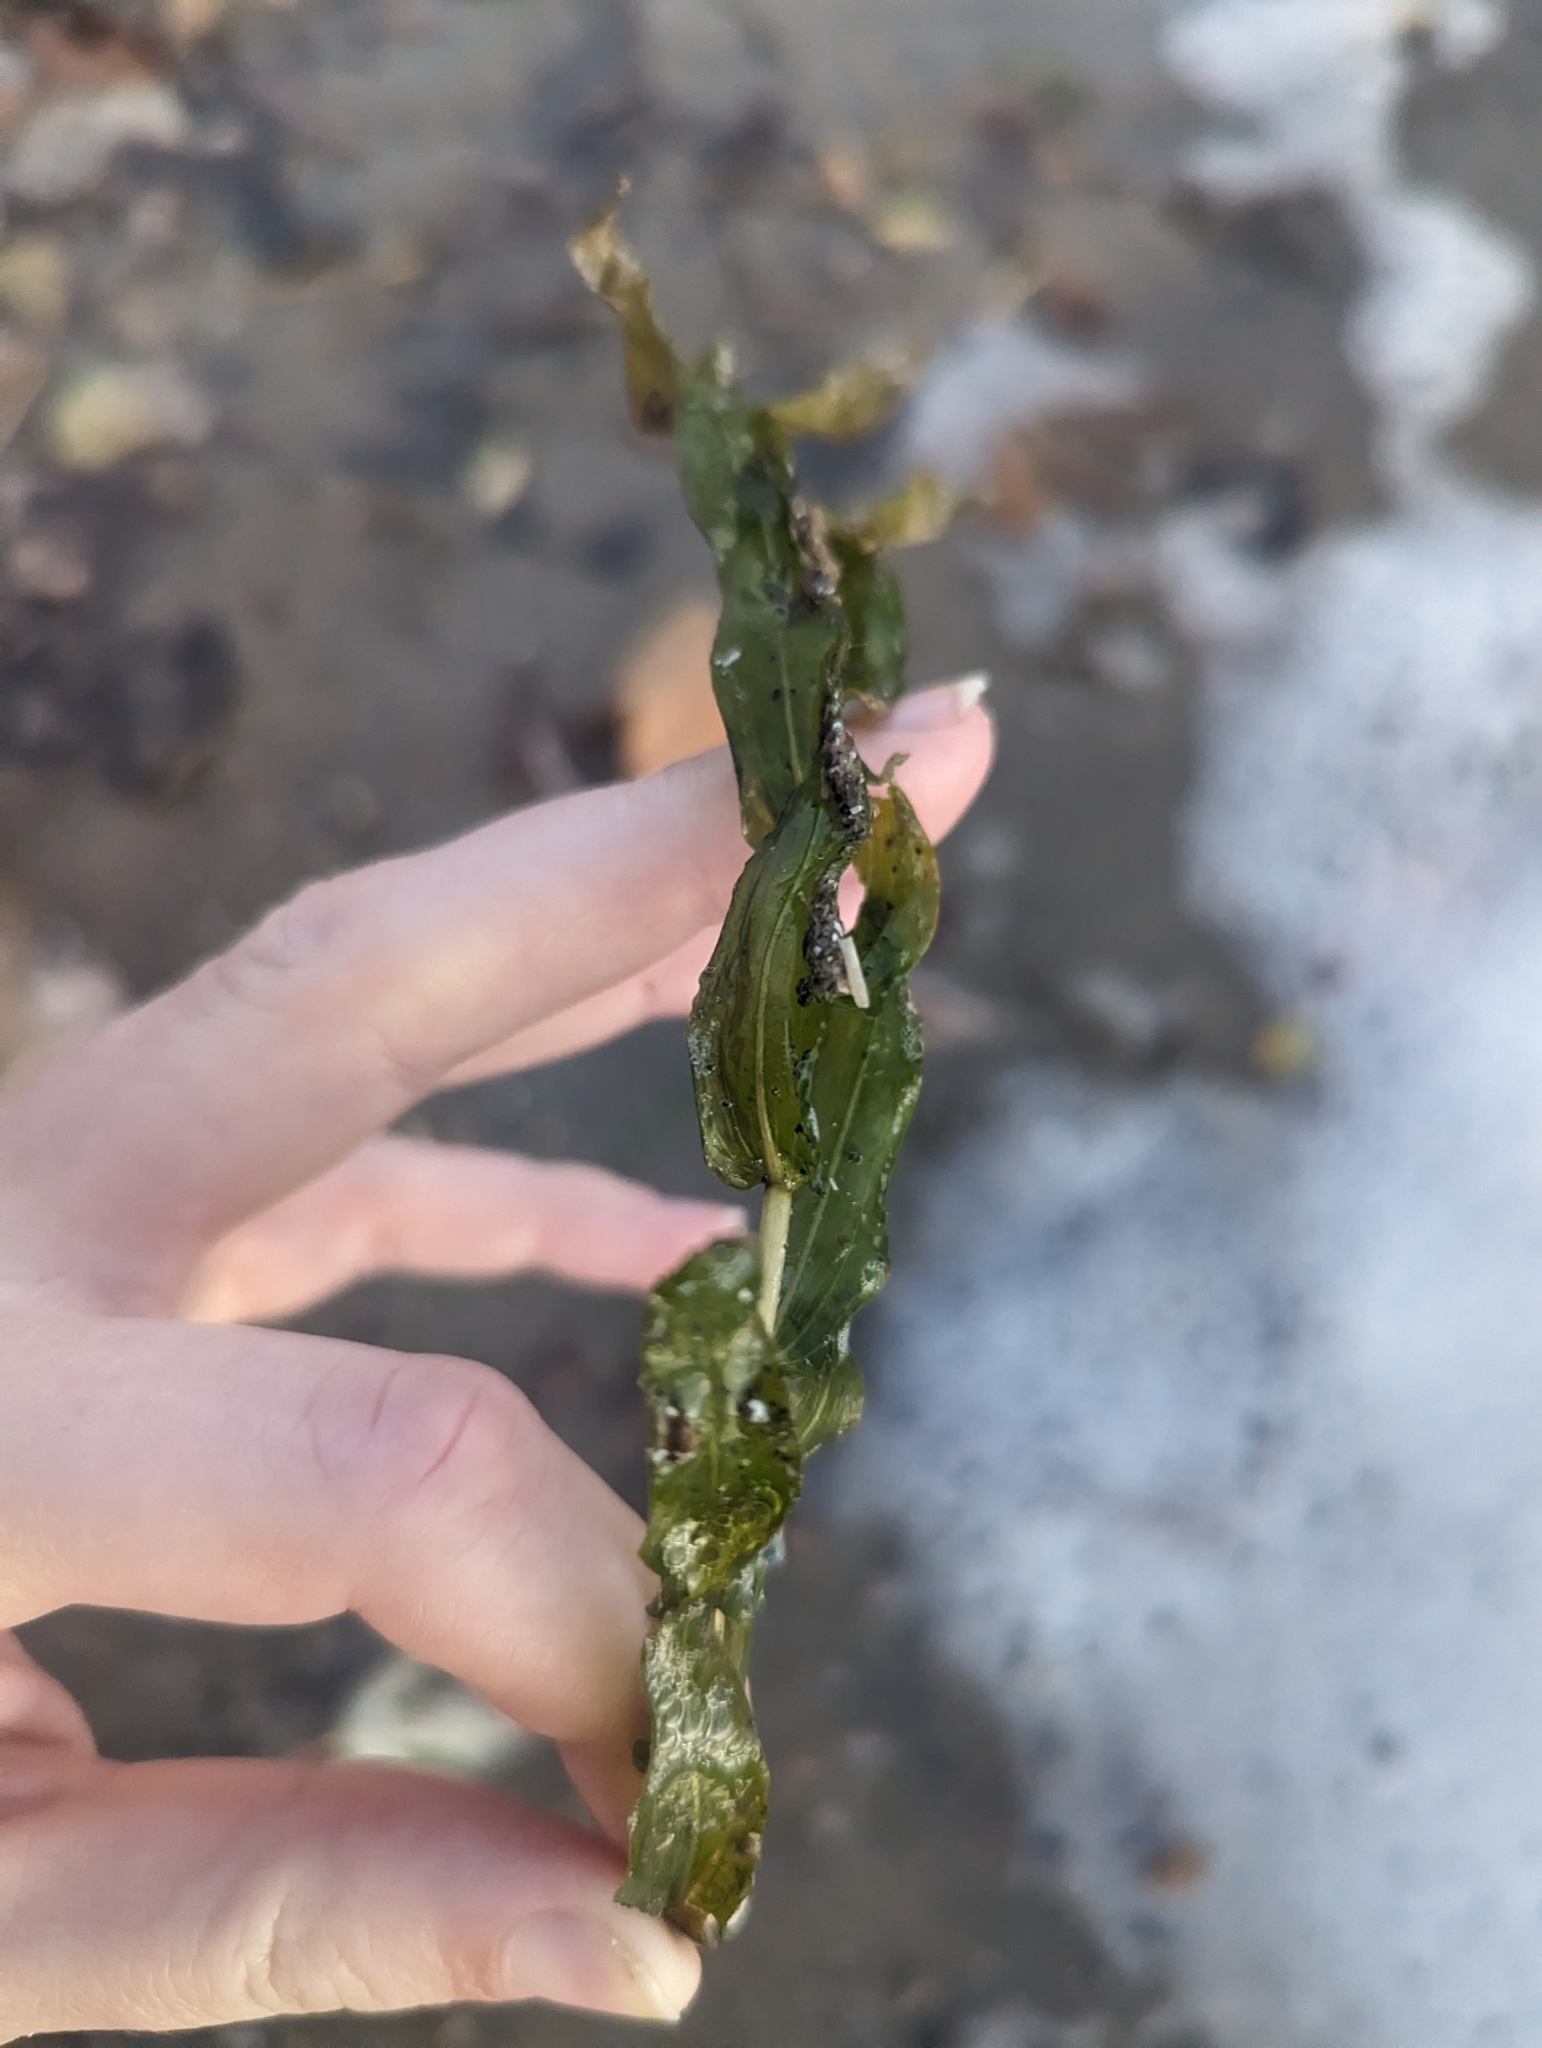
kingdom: Plantae
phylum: Tracheophyta
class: Liliopsida
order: Alismatales
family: Potamogetonaceae
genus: Potamogeton
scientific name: Potamogeton richardsonii
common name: Richardson's pondweed
